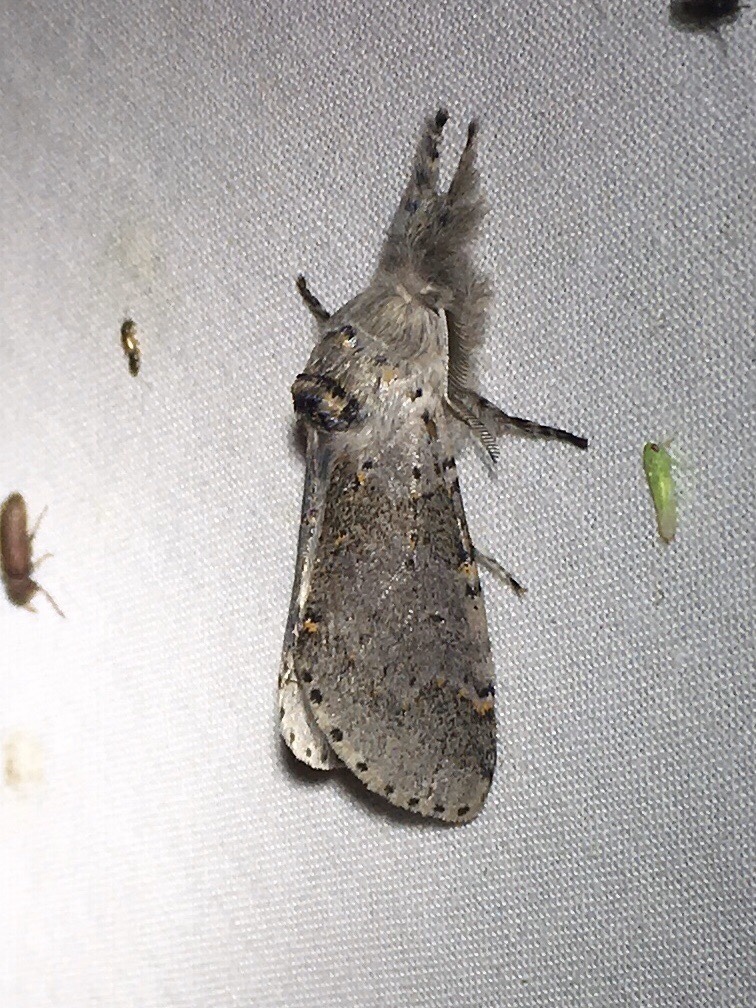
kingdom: Animalia
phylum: Arthropoda
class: Insecta
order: Lepidoptera
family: Notodontidae
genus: Furcula
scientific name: Furcula cinerea
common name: Gray furcula
